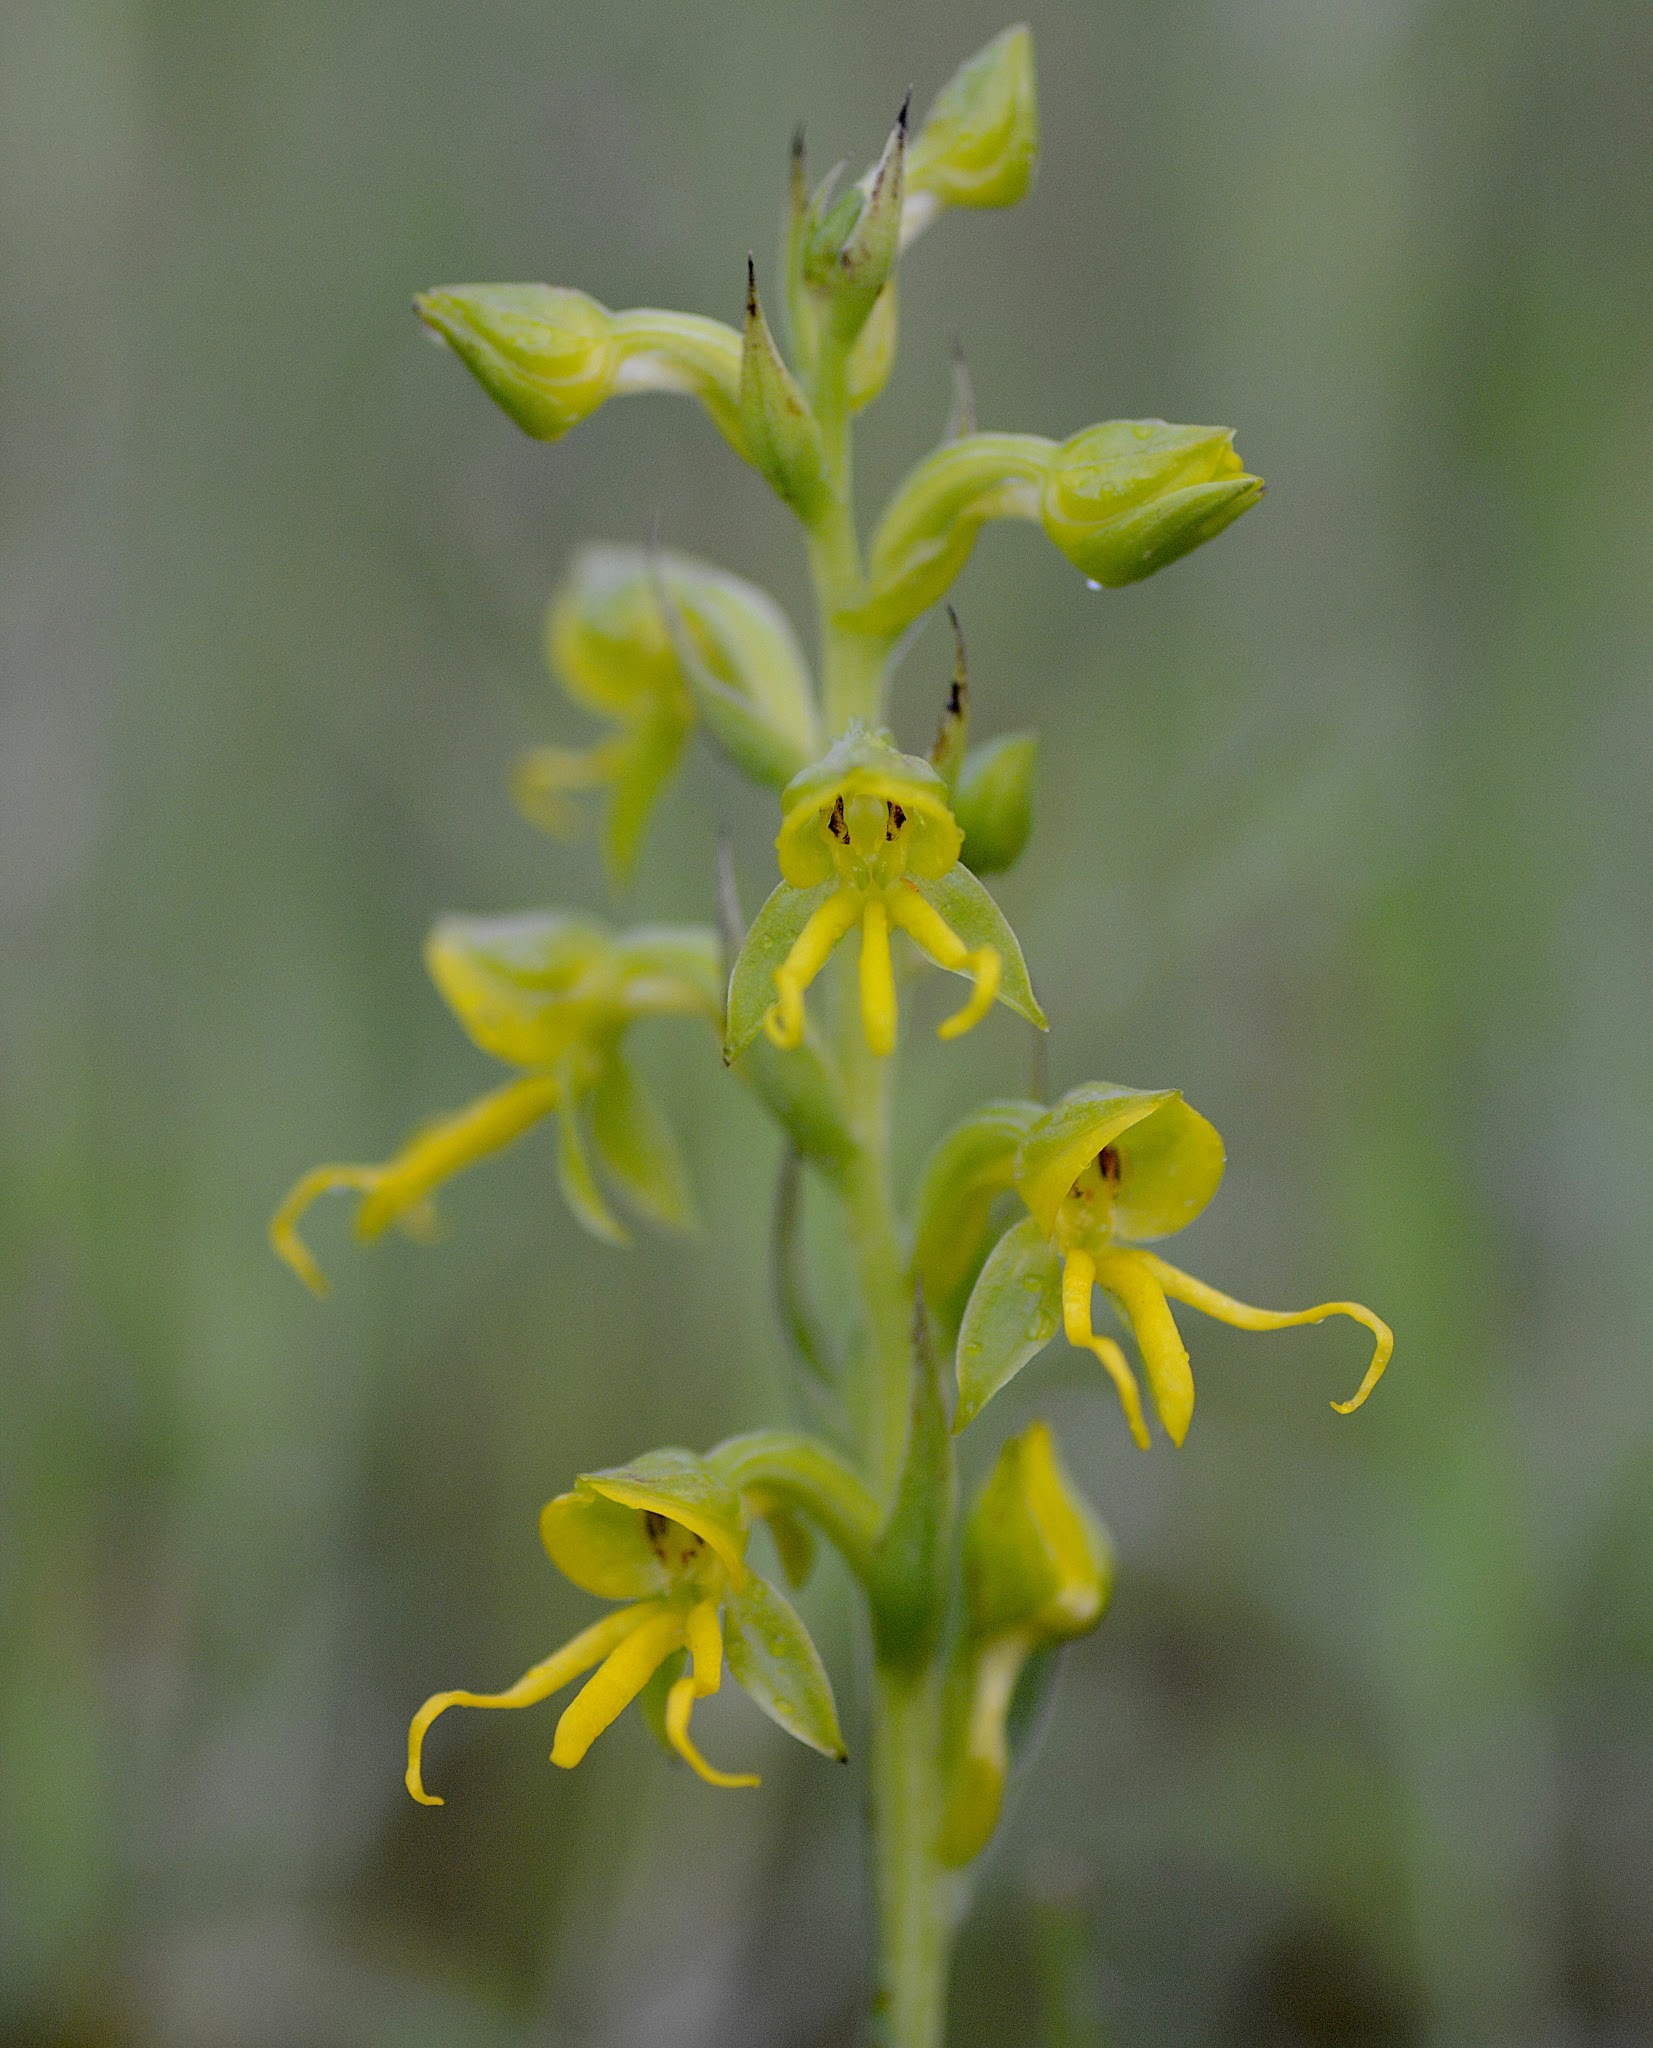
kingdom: Plantae
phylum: Tracheophyta
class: Liliopsida
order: Asparagales
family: Orchidaceae
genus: Habenaria
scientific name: Habenaria marginata
